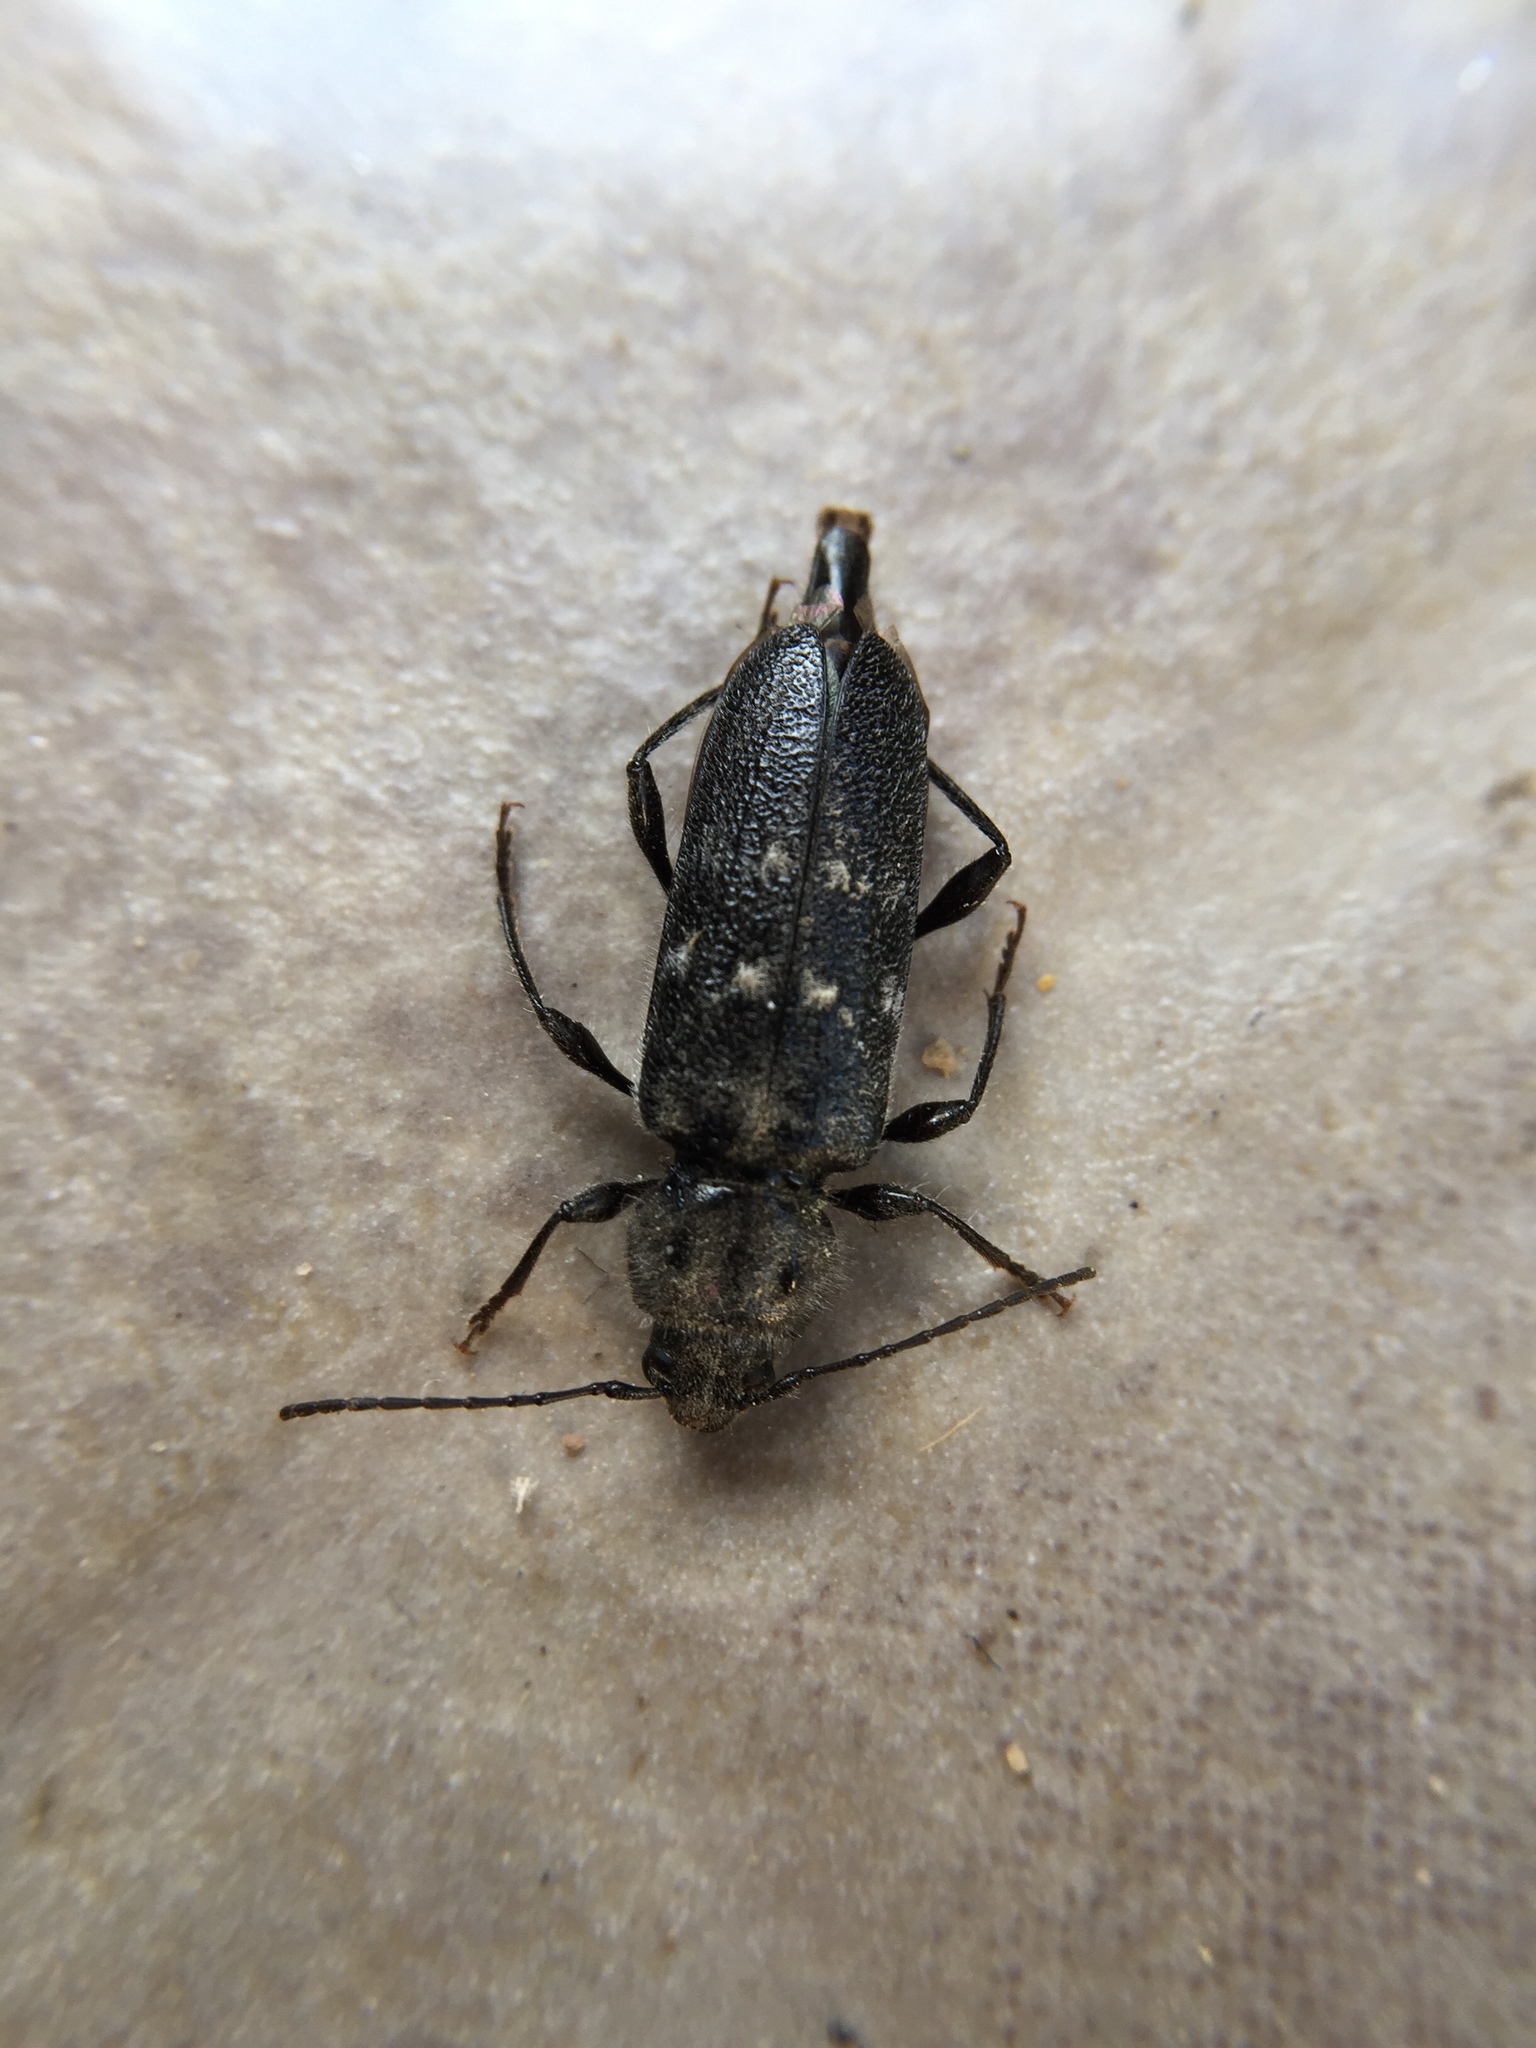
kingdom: Animalia
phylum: Arthropoda
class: Insecta
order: Coleoptera
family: Cerambycidae
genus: Hylotrupes
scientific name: Hylotrupes bajulus
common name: Old house borer
